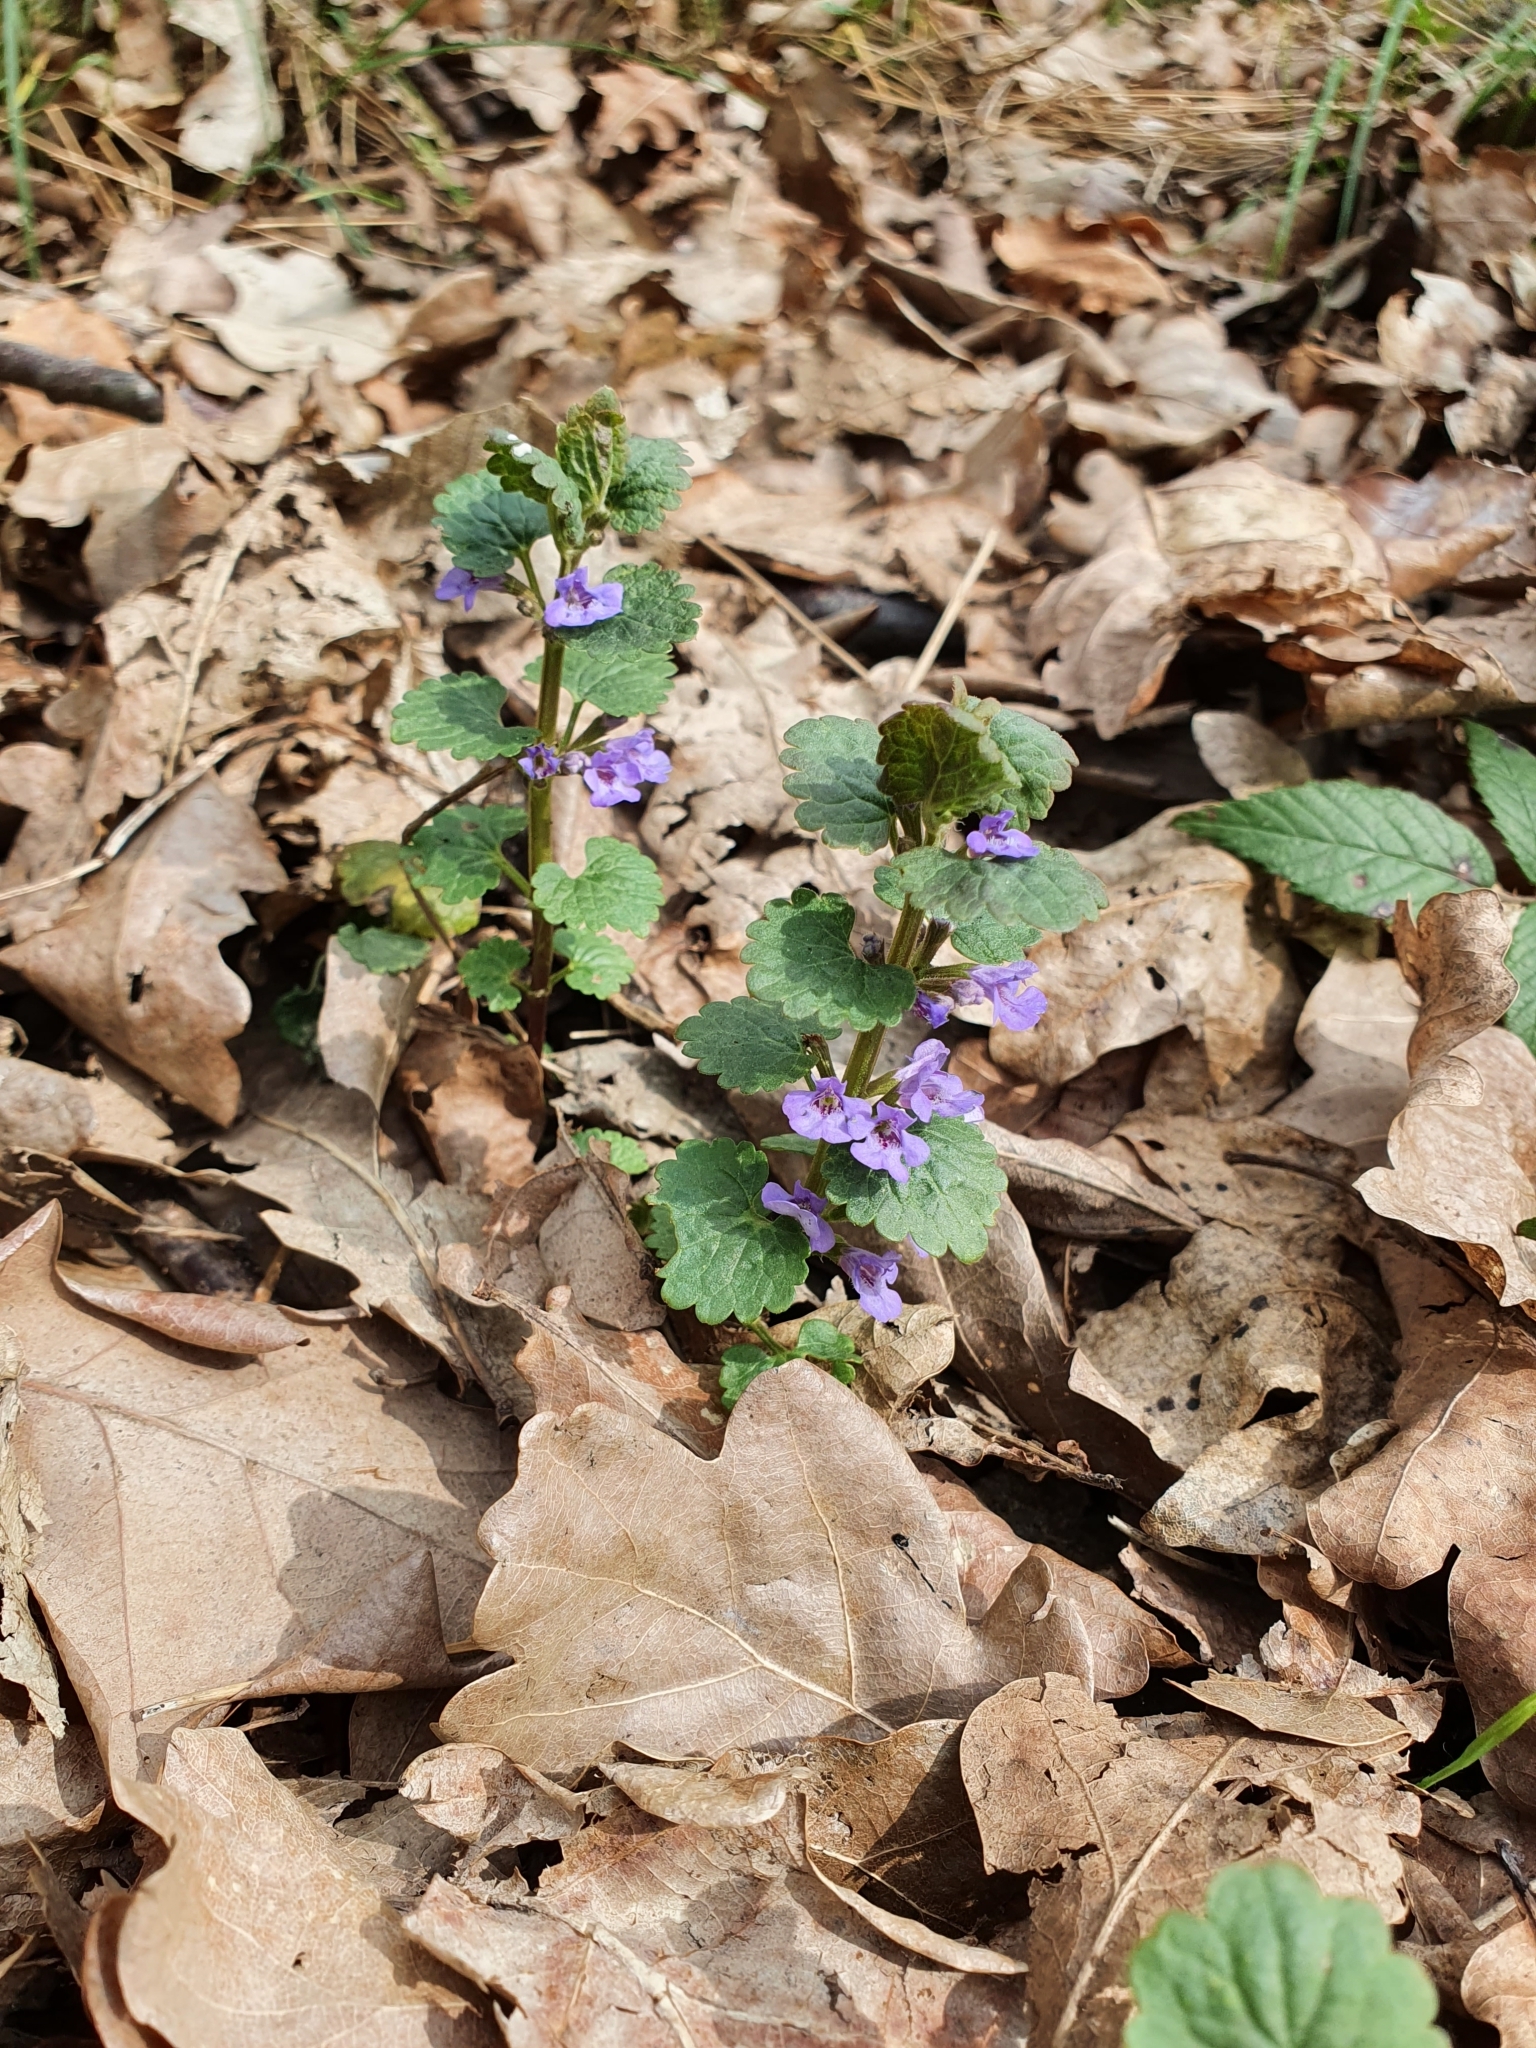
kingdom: Plantae
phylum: Tracheophyta
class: Magnoliopsida
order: Lamiales
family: Lamiaceae
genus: Glechoma
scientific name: Glechoma hederacea
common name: Ground ivy
